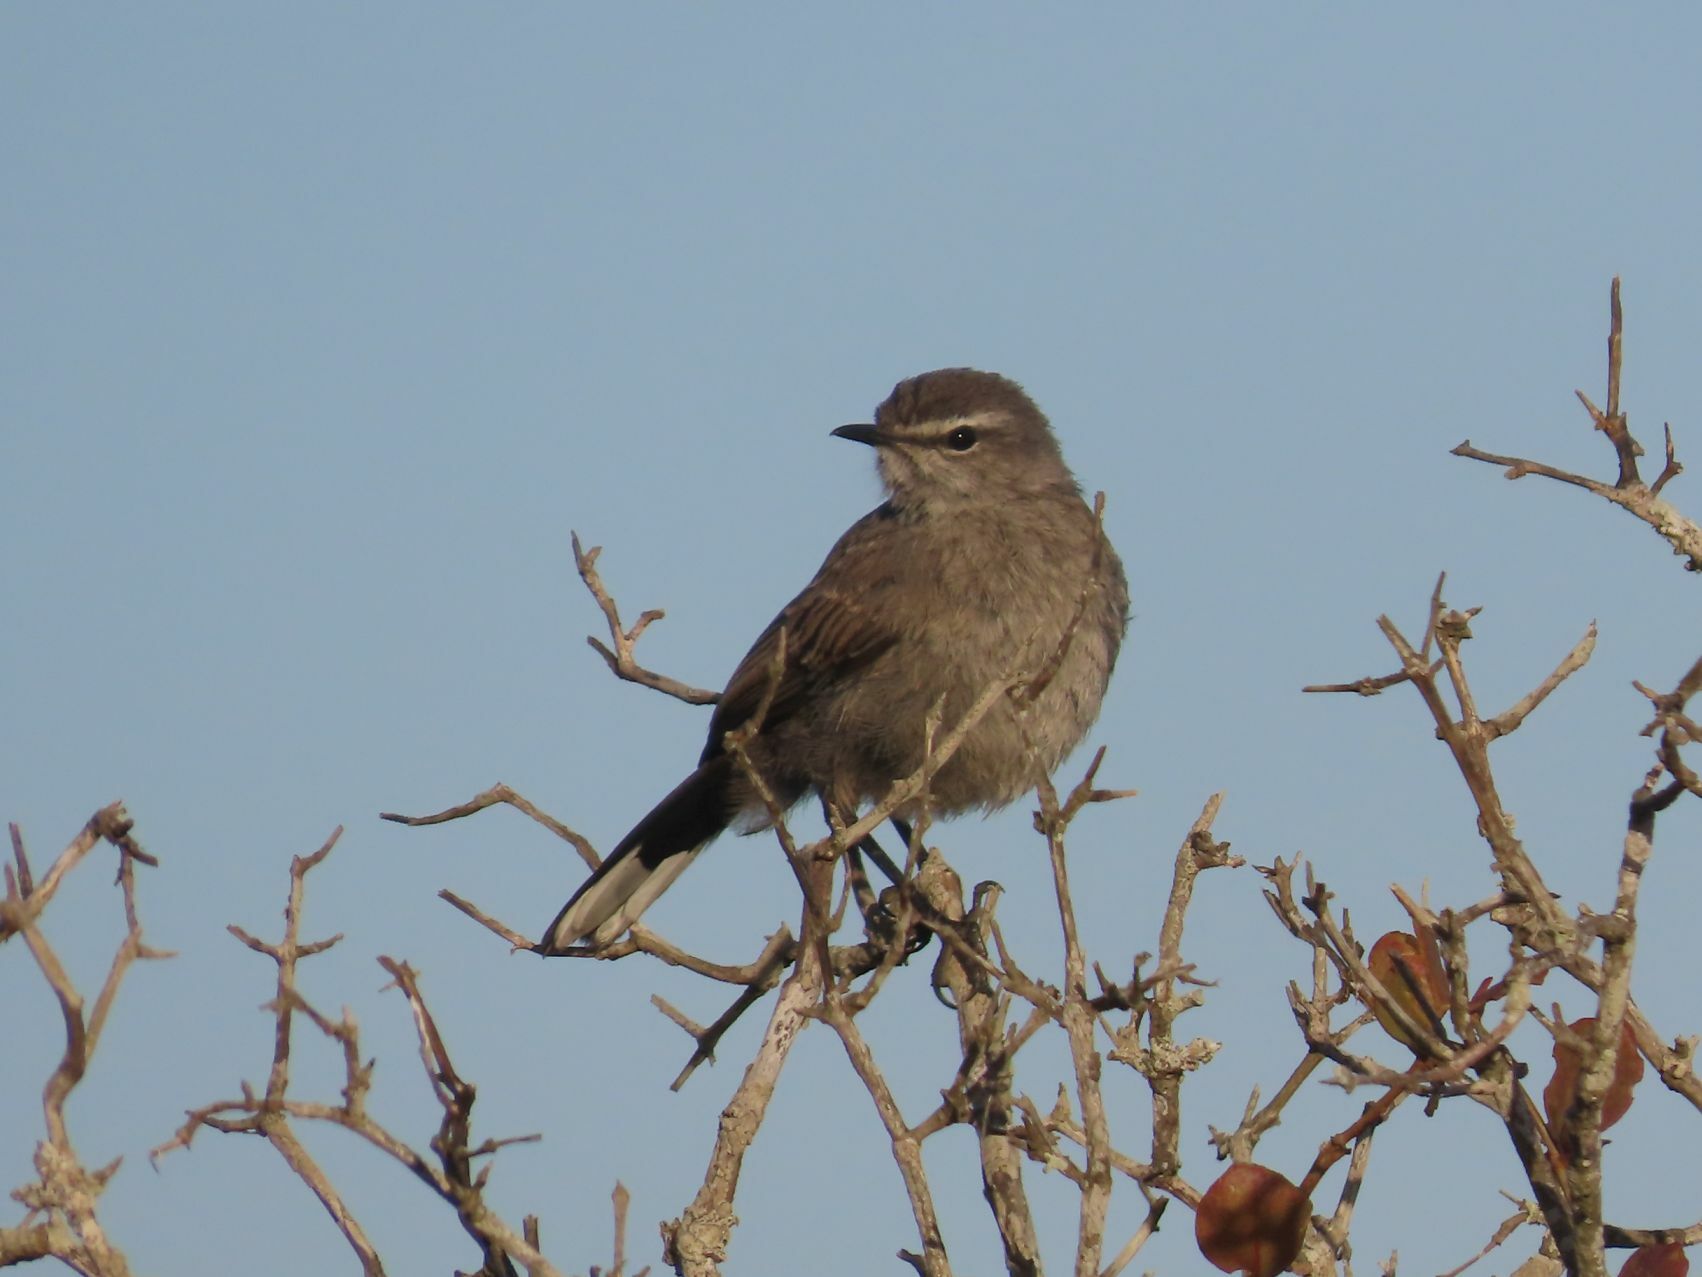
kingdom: Animalia
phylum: Chordata
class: Aves
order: Passeriformes
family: Muscicapidae
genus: Erythropygia
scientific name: Erythropygia coryphoeus
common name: Karoo scrub robin
